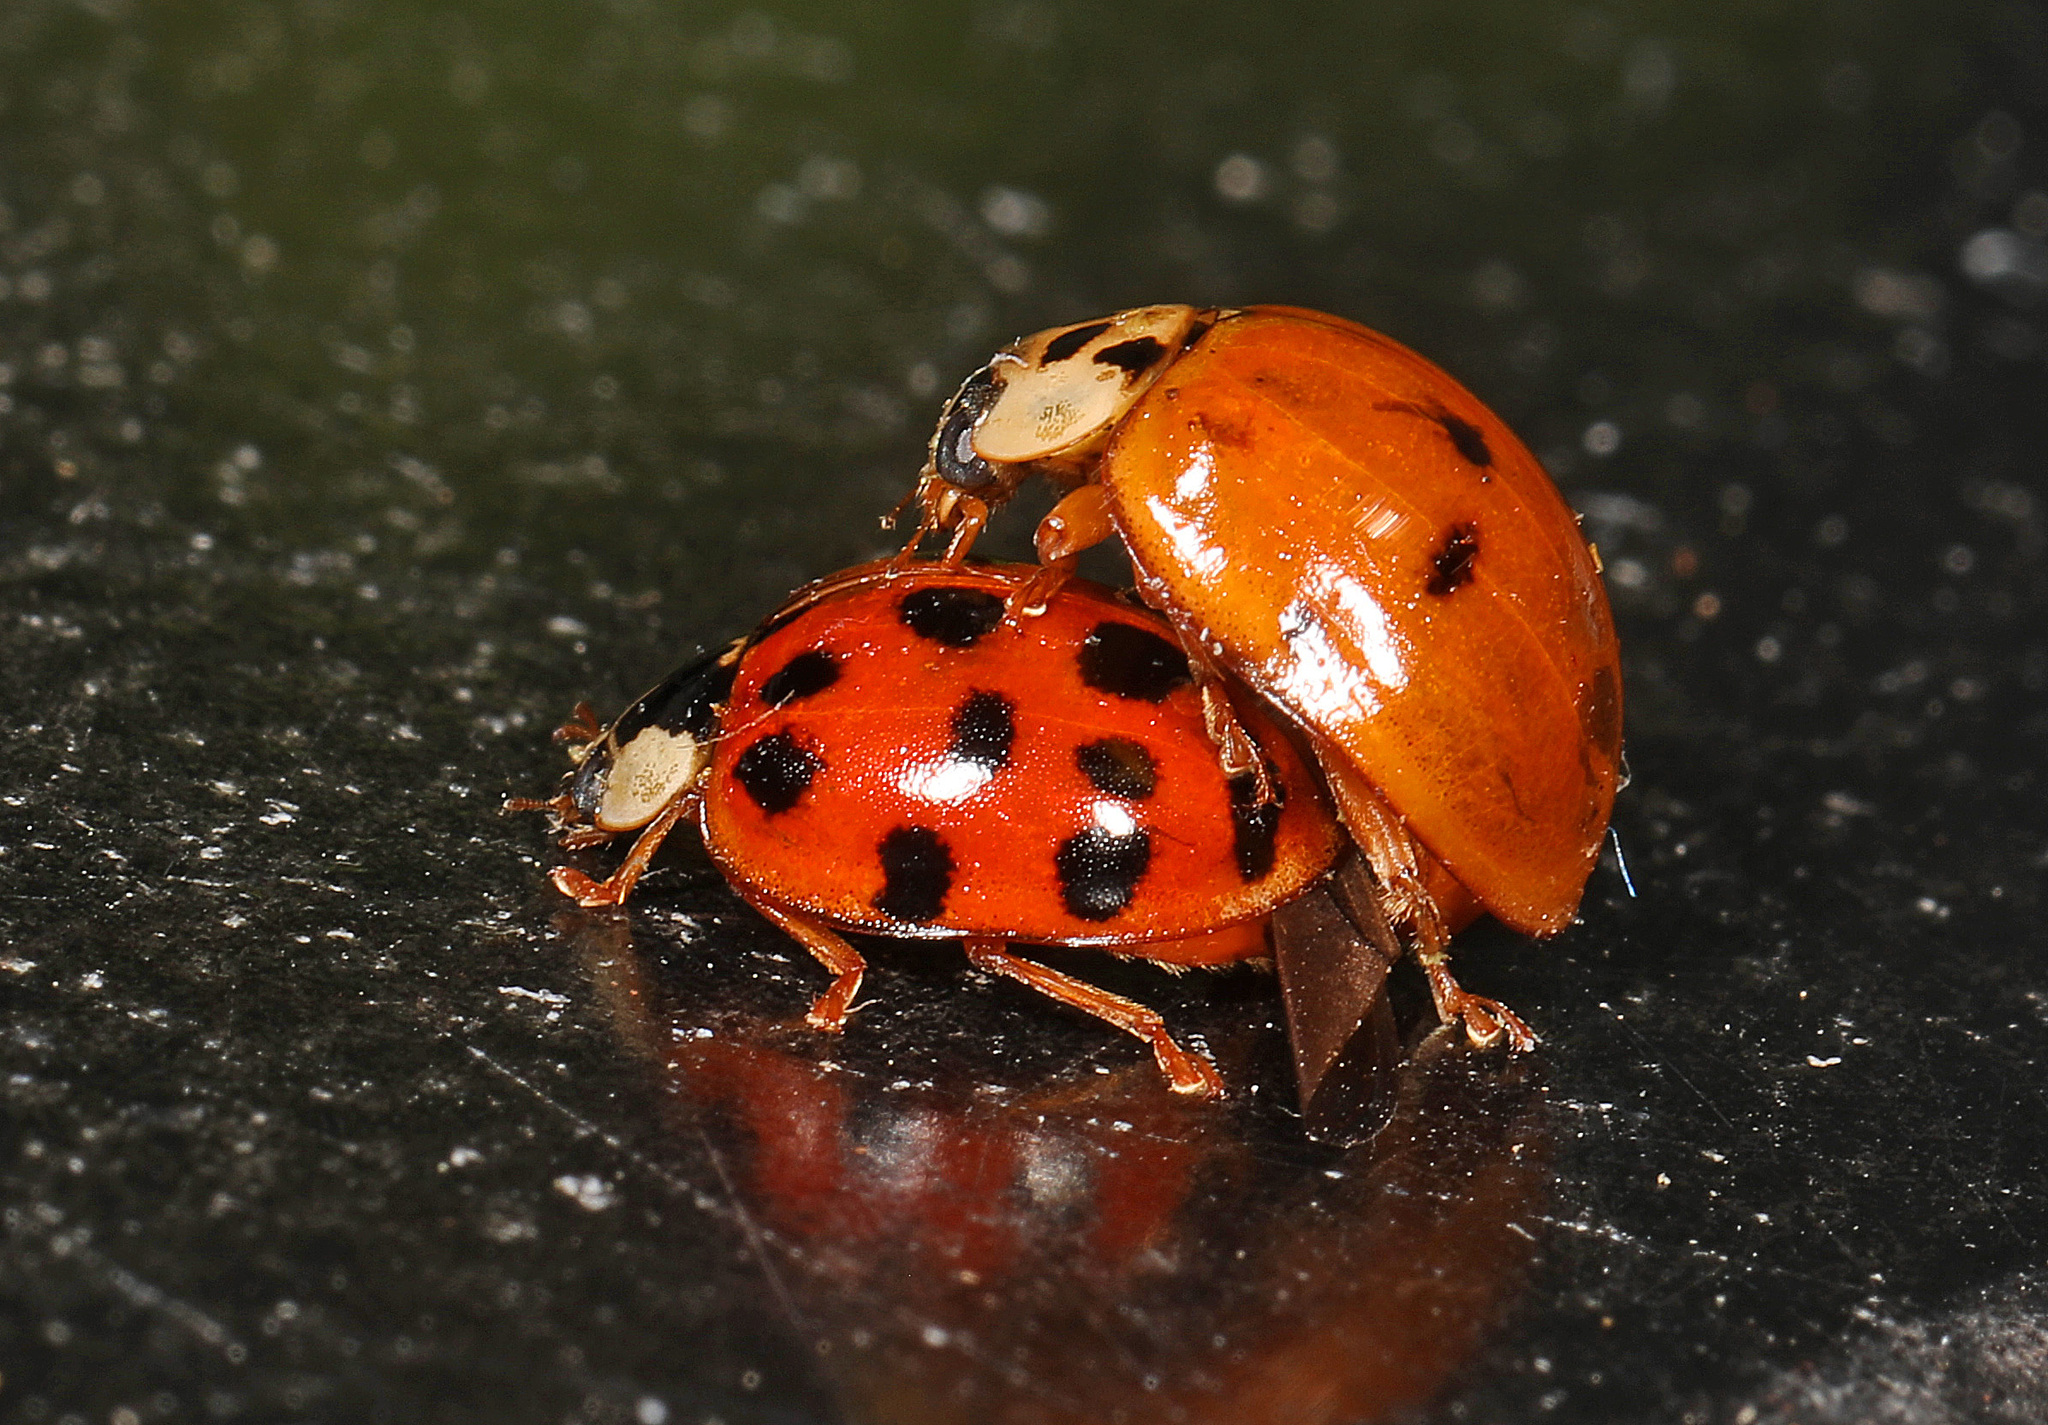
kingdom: Animalia
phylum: Arthropoda
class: Insecta
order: Coleoptera
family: Coccinellidae
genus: Harmonia
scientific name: Harmonia axyridis
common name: Harlequin ladybird
